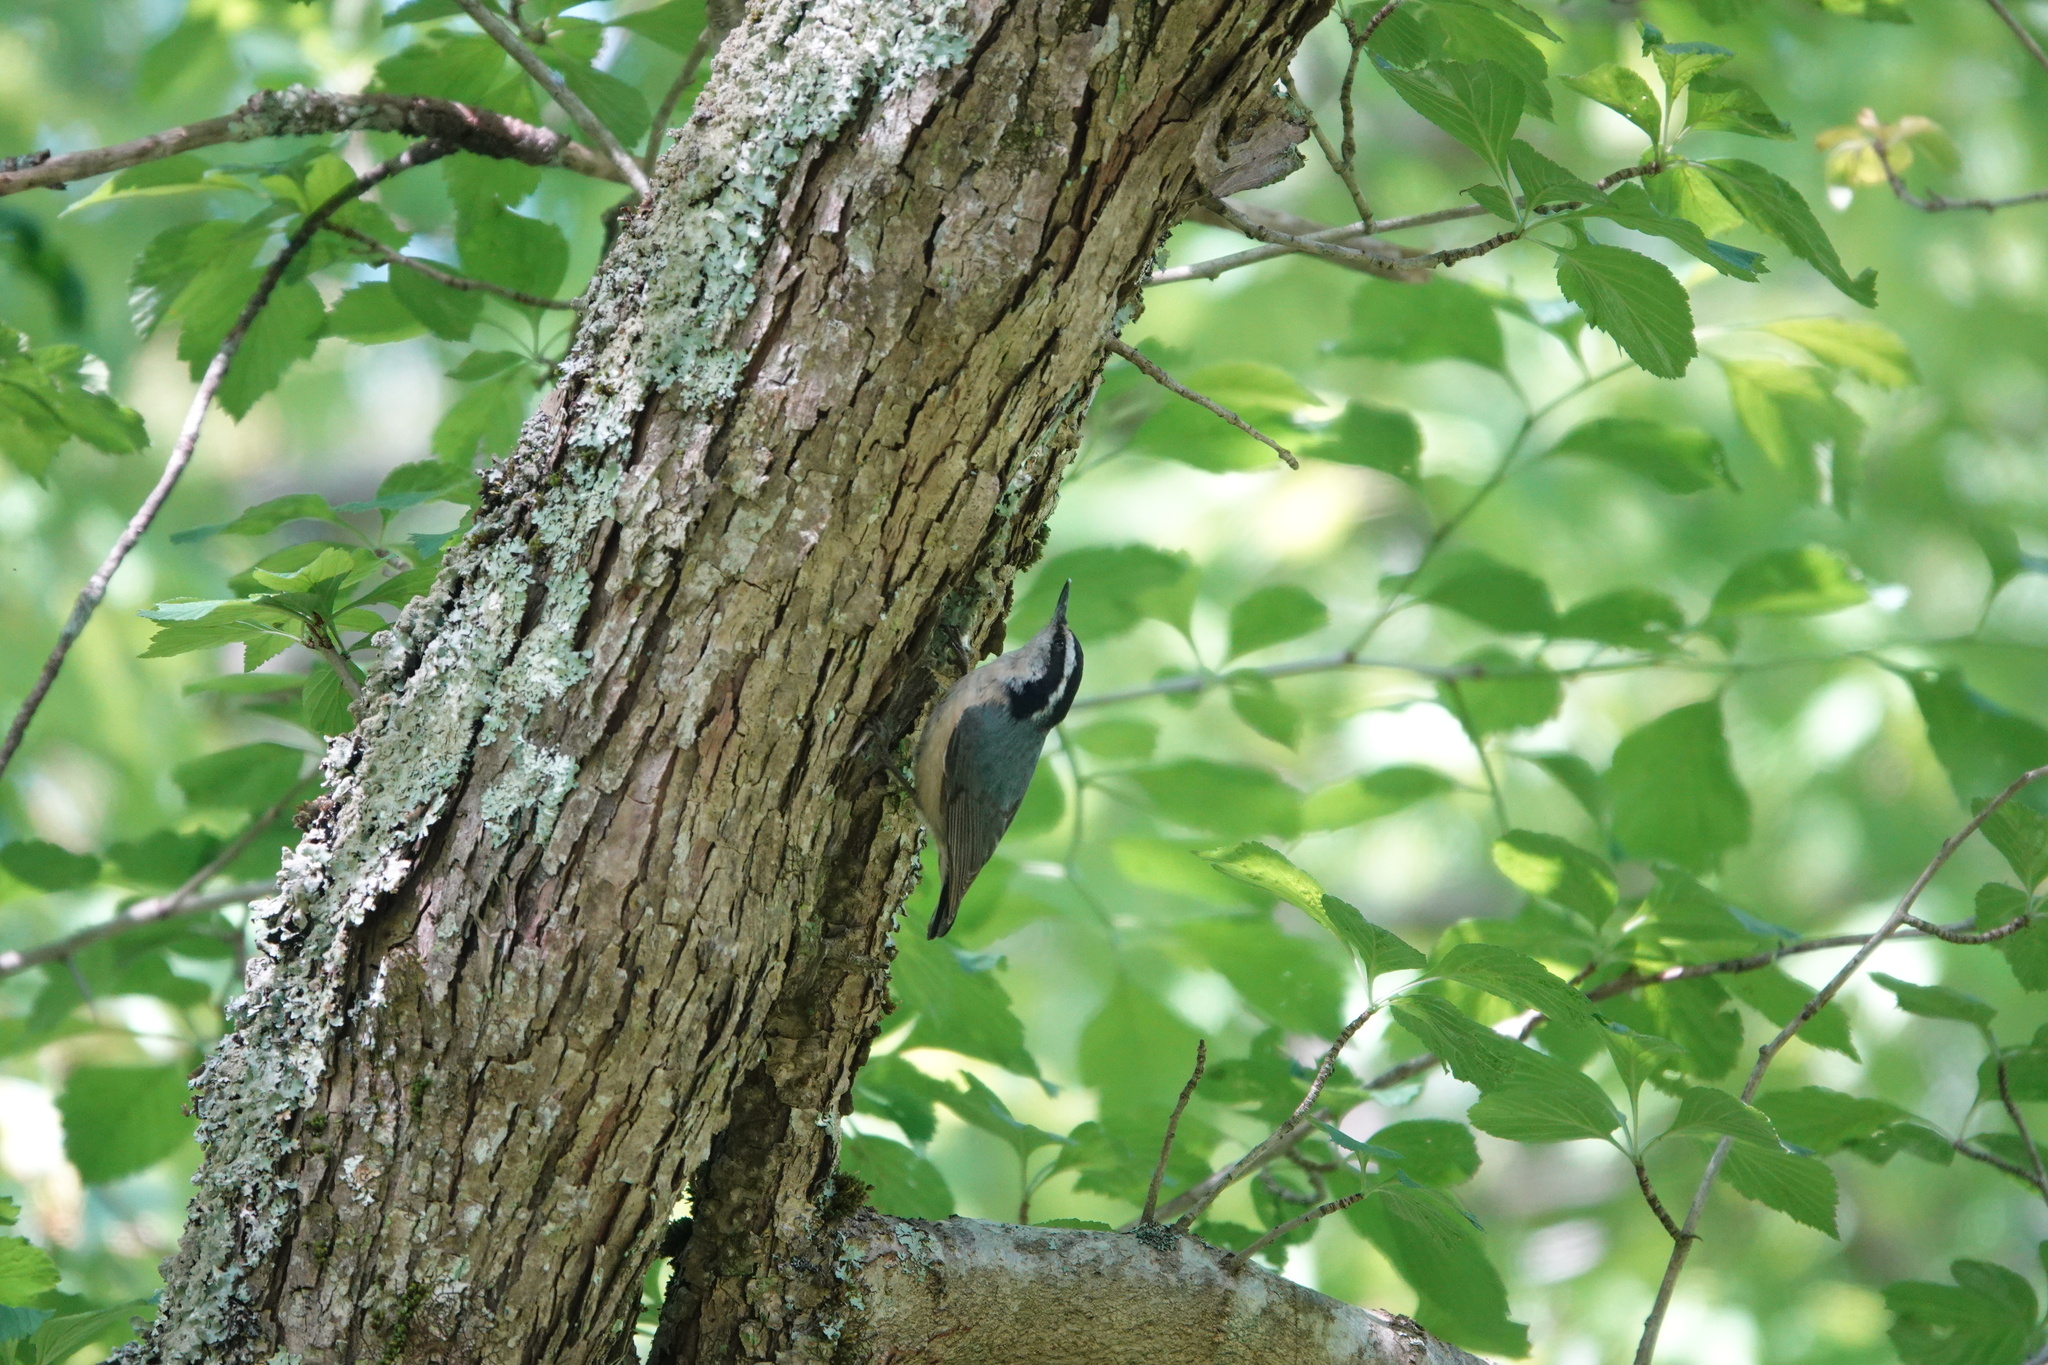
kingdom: Animalia
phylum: Chordata
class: Aves
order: Passeriformes
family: Sittidae
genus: Sitta
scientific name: Sitta canadensis
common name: Red-breasted nuthatch
